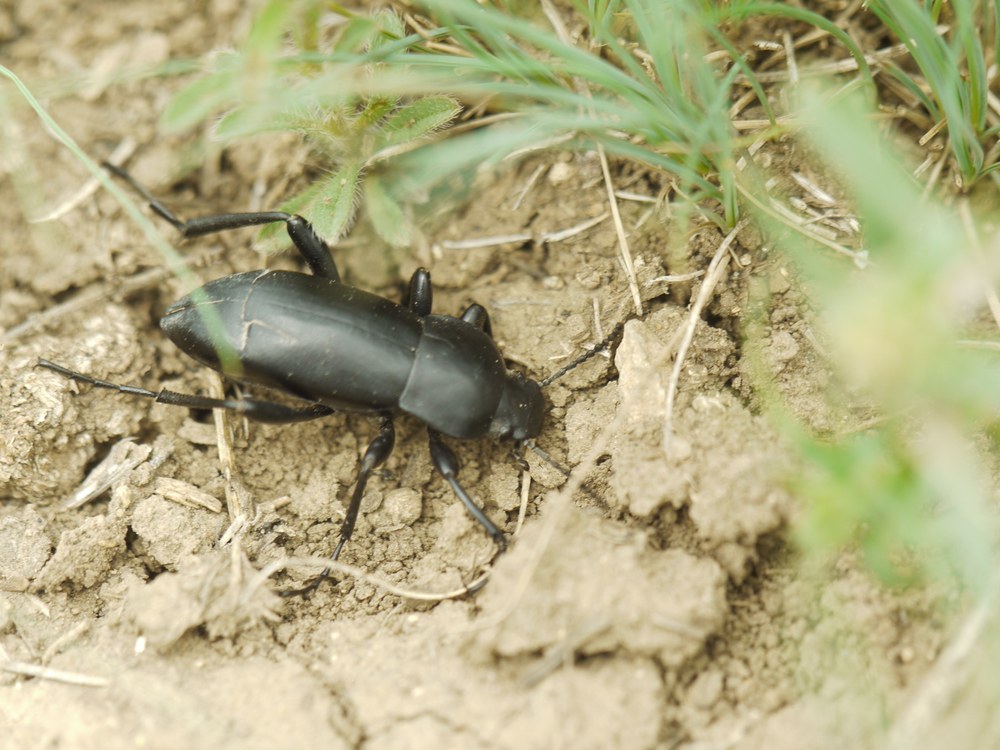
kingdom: Animalia
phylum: Arthropoda
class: Insecta
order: Coleoptera
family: Tenebrionidae
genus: Prosodes
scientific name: Prosodes obtusa
